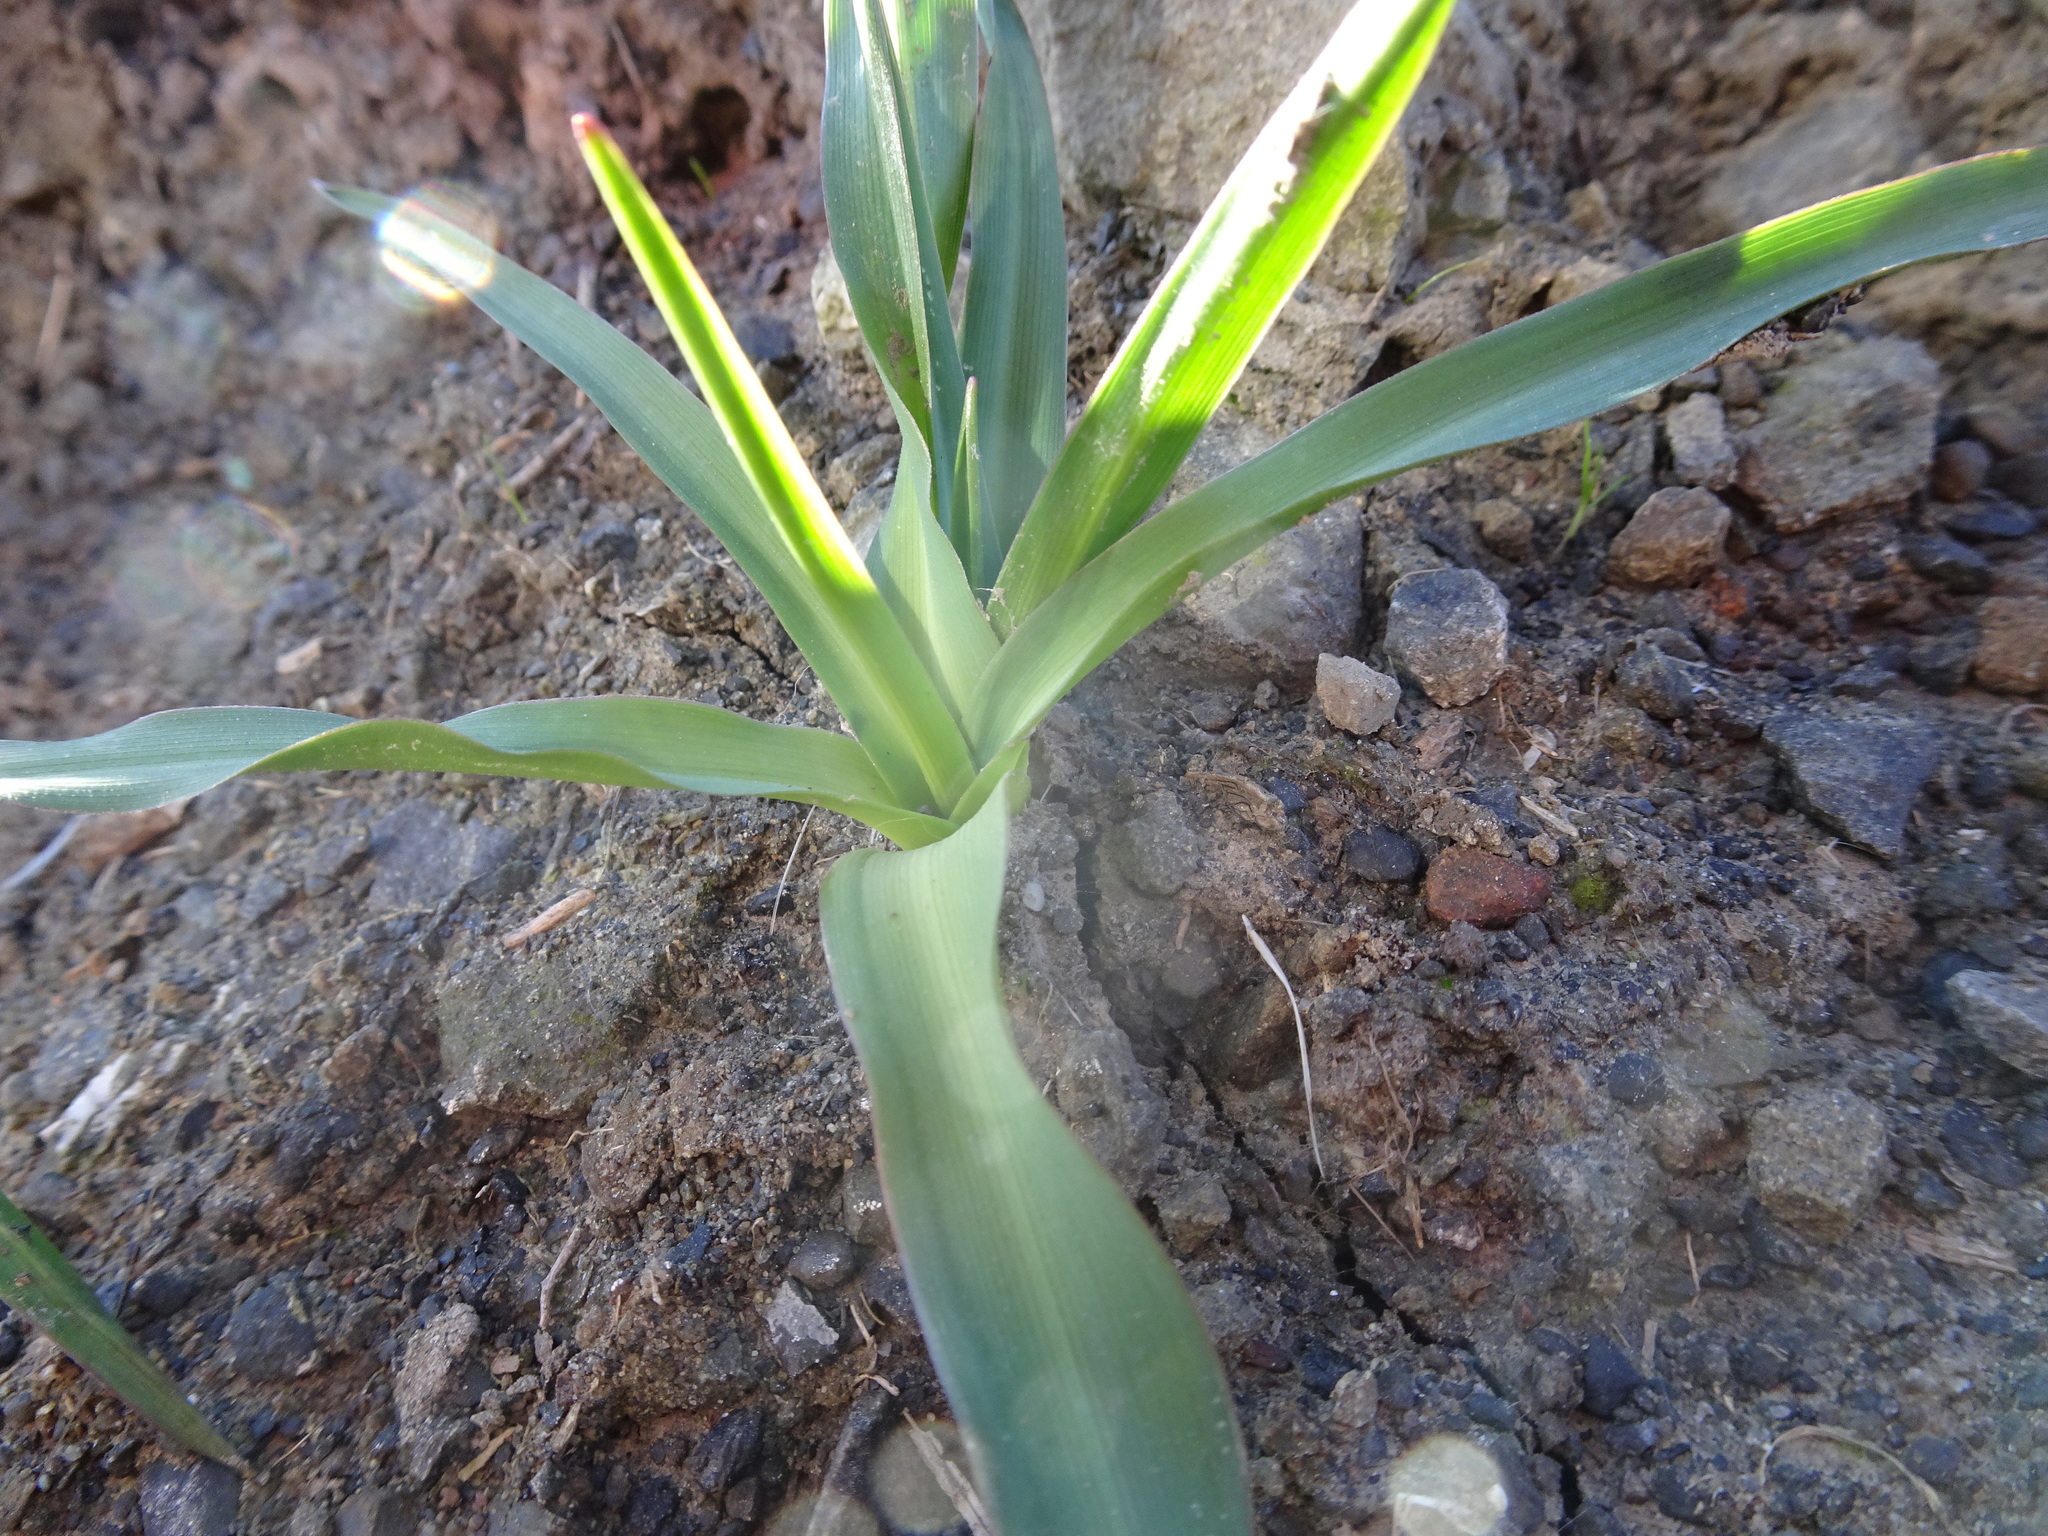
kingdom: Plantae
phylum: Tracheophyta
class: Liliopsida
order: Asparagales
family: Asparagaceae
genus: Chlorogalum
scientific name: Chlorogalum pomeridianum
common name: Amole
